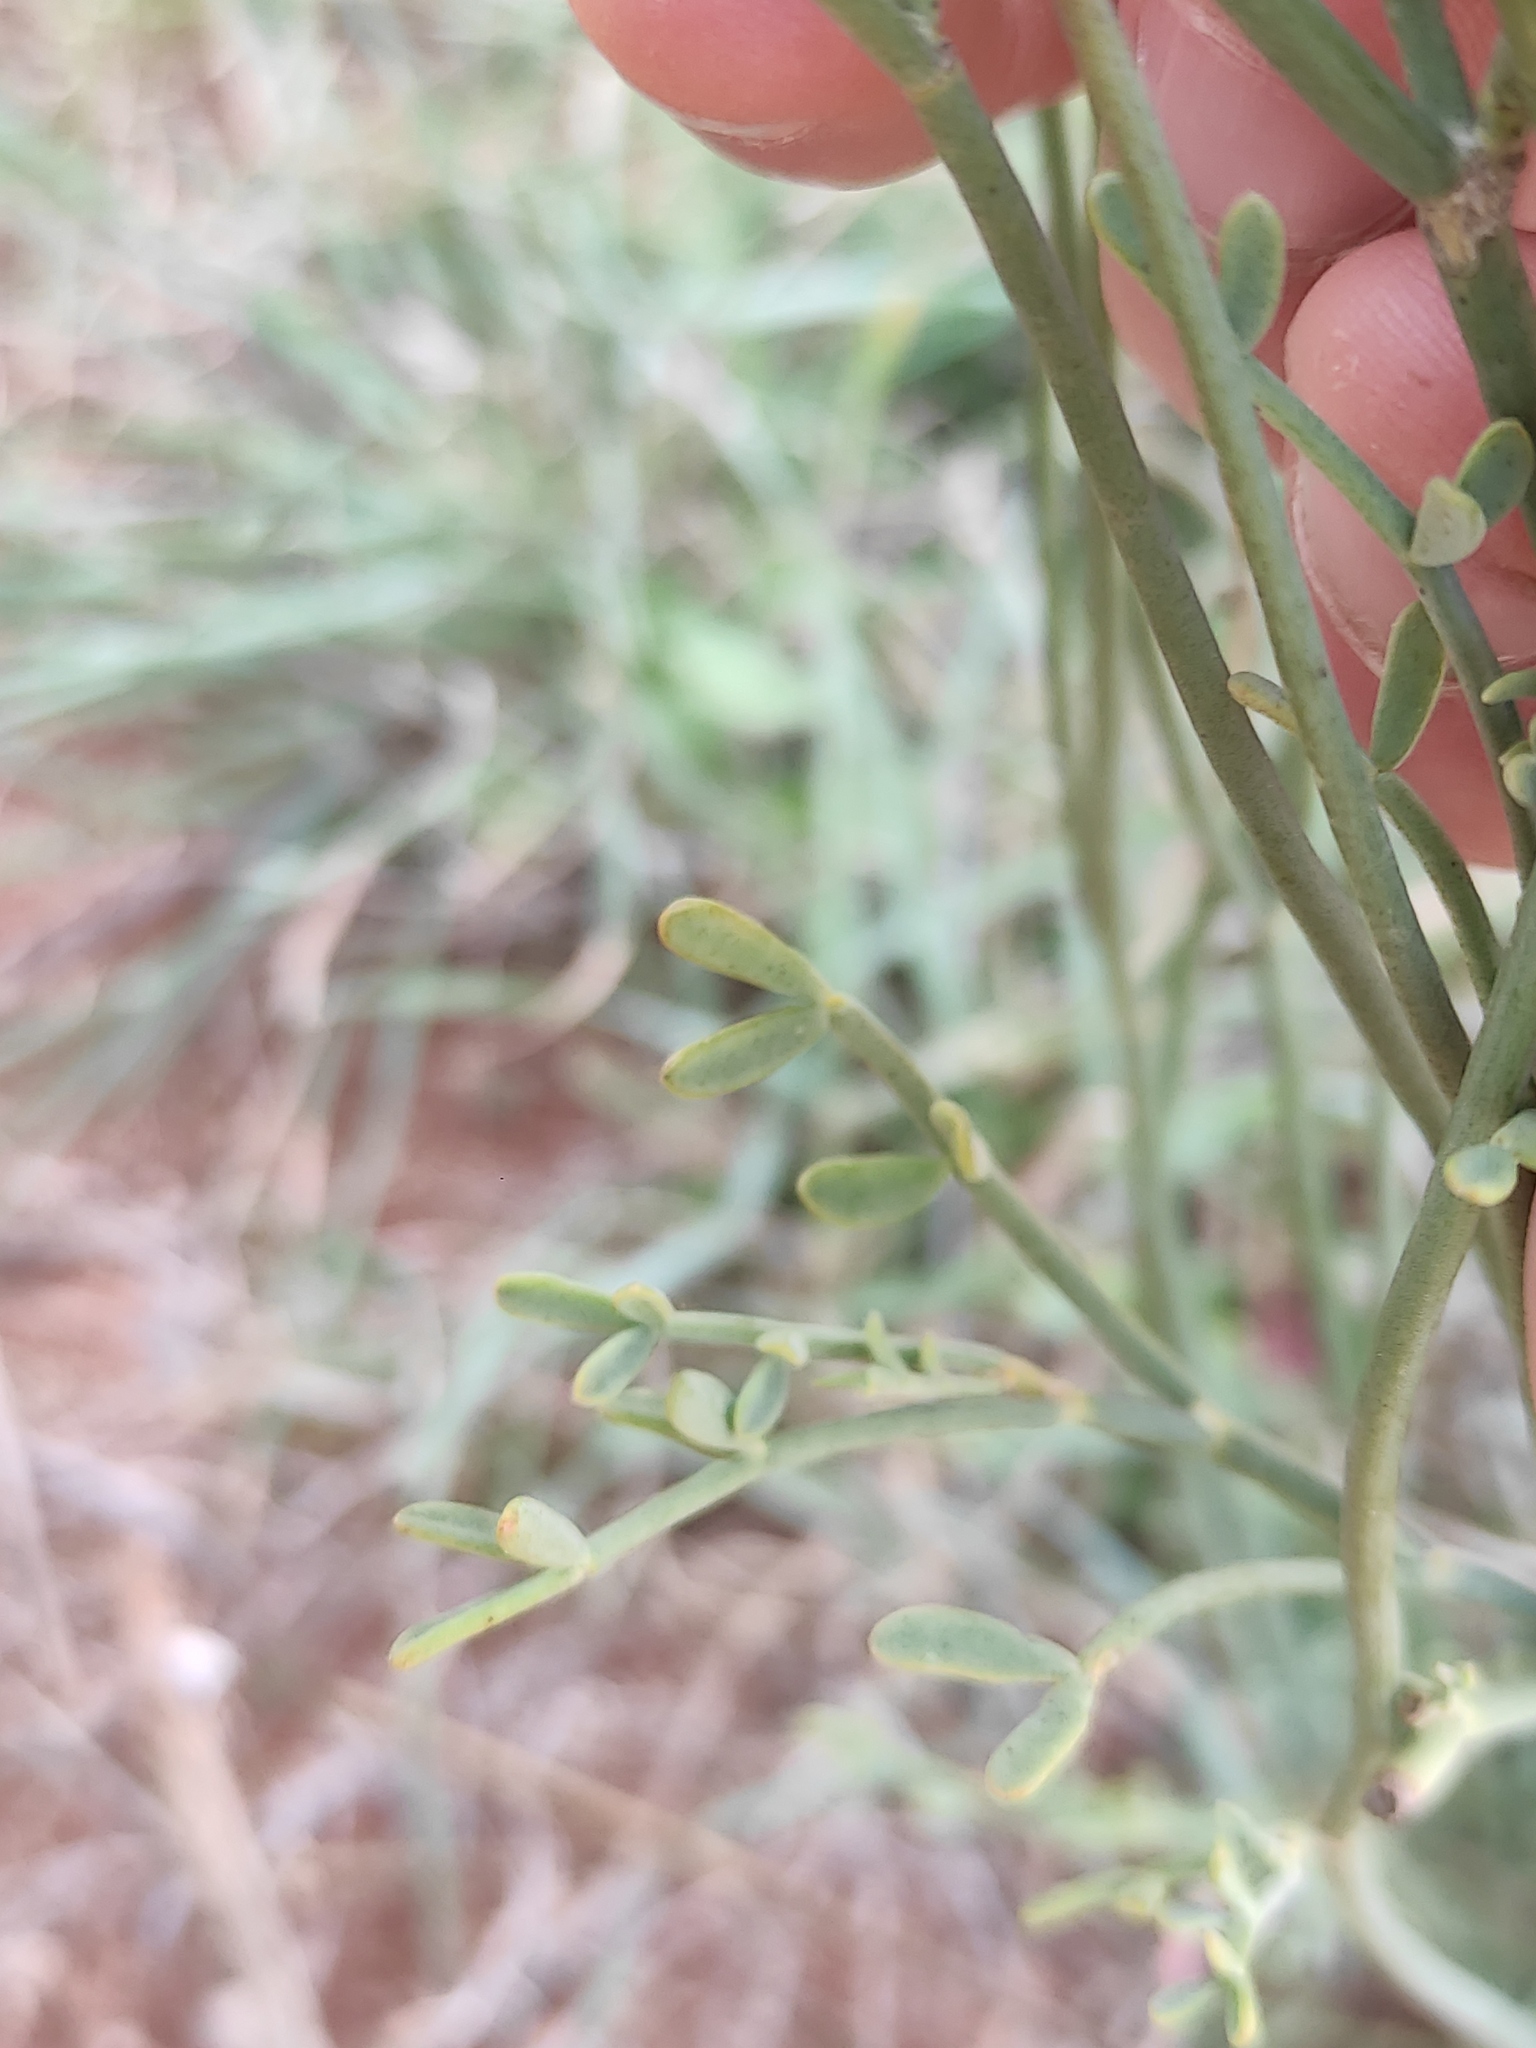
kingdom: Plantae
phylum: Tracheophyta
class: Magnoliopsida
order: Fabales
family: Fabaceae
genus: Coronilla
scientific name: Coronilla juncea
